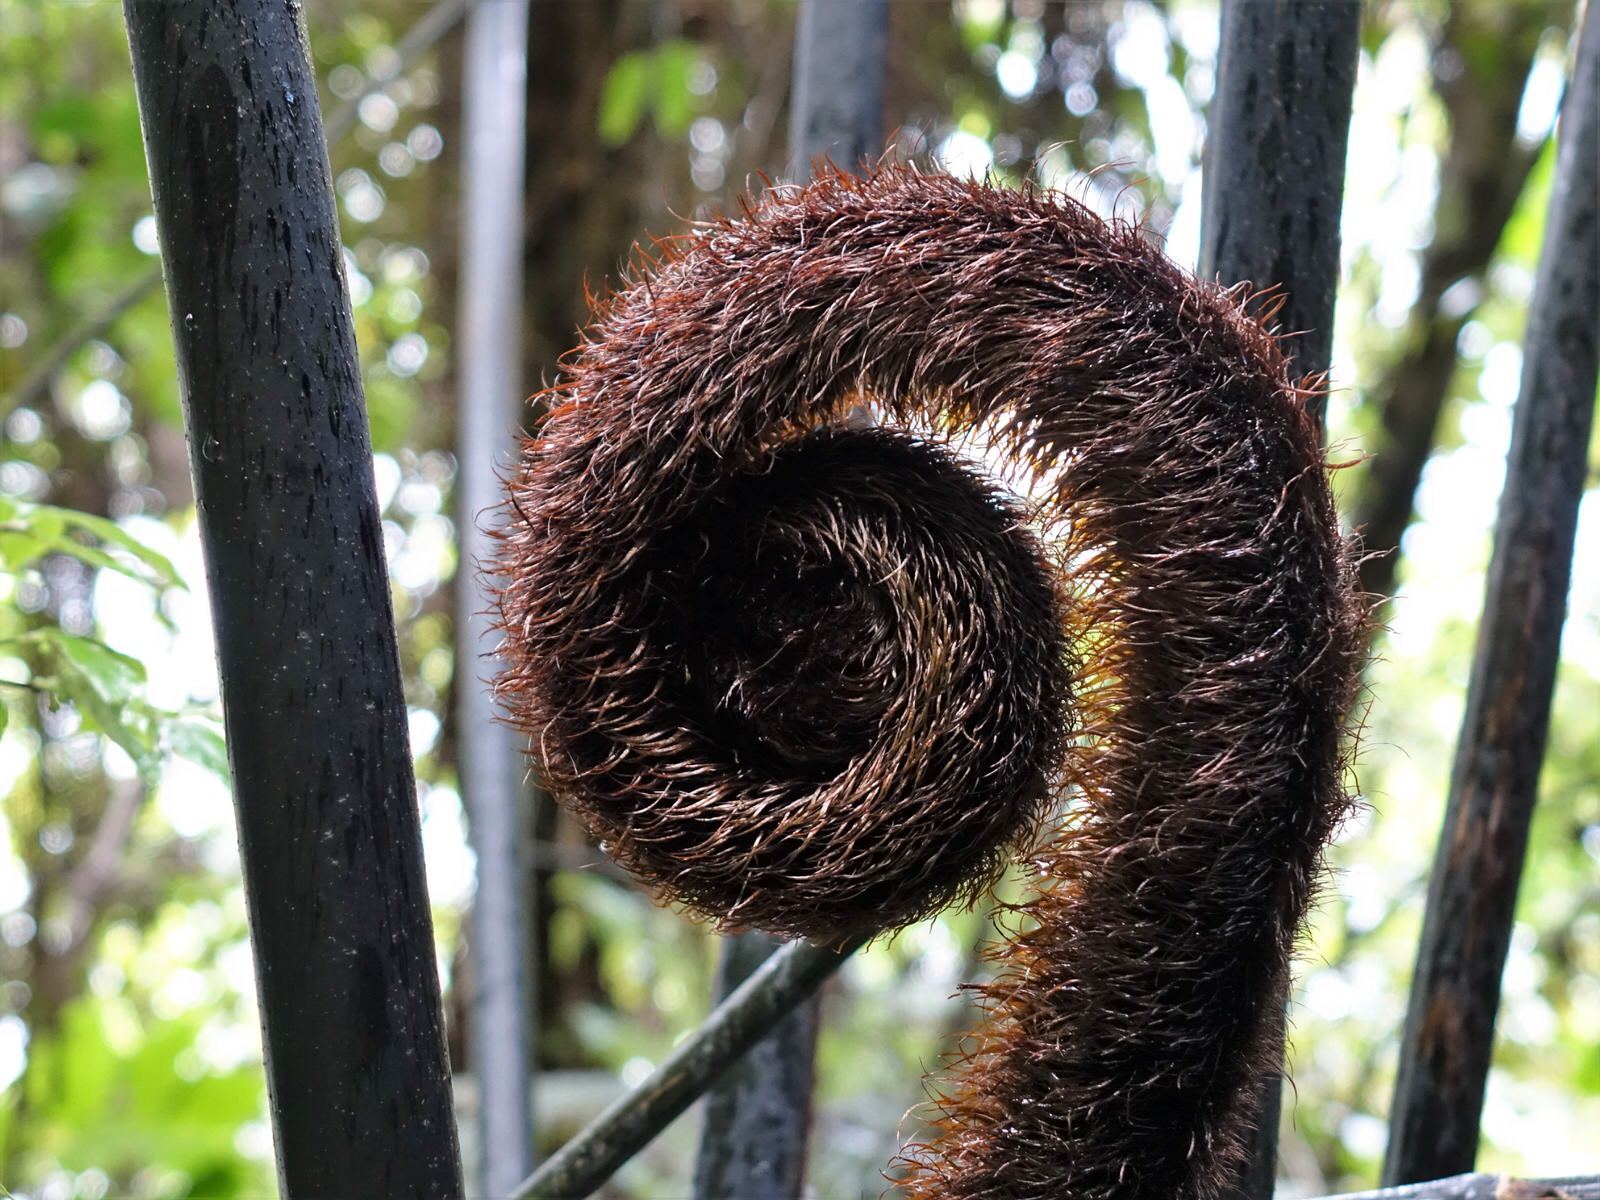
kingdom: Plantae
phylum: Tracheophyta
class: Polypodiopsida
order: Cyatheales
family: Cyatheaceae
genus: Sphaeropteris
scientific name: Sphaeropteris medullaris
